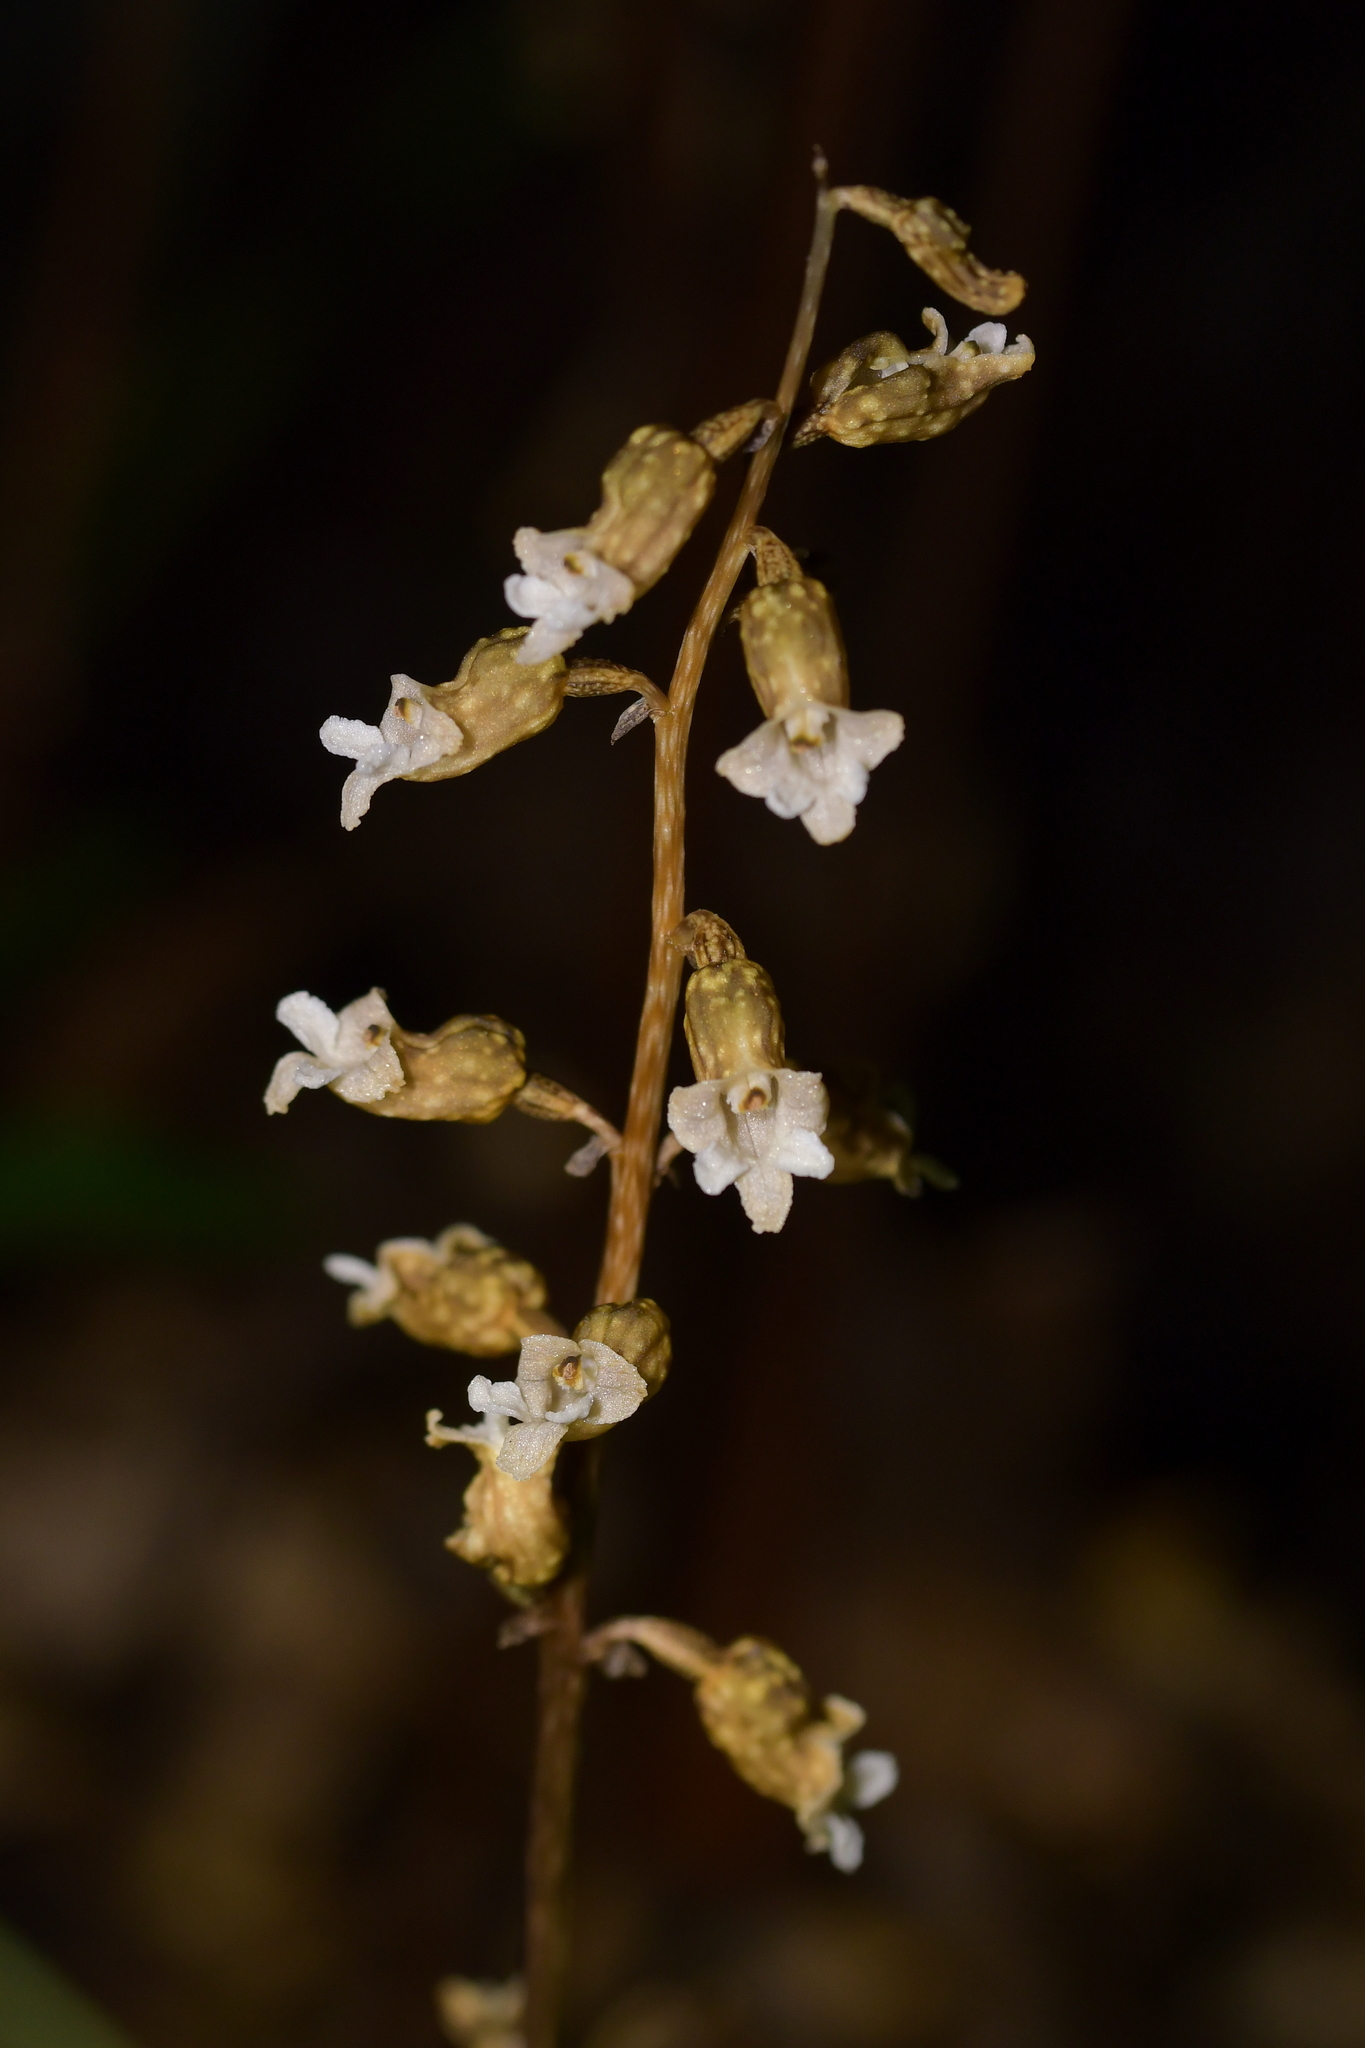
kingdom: Plantae
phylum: Tracheophyta
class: Liliopsida
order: Asparagales
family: Orchidaceae
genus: Gastrodia
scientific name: Gastrodia cunninghamii
